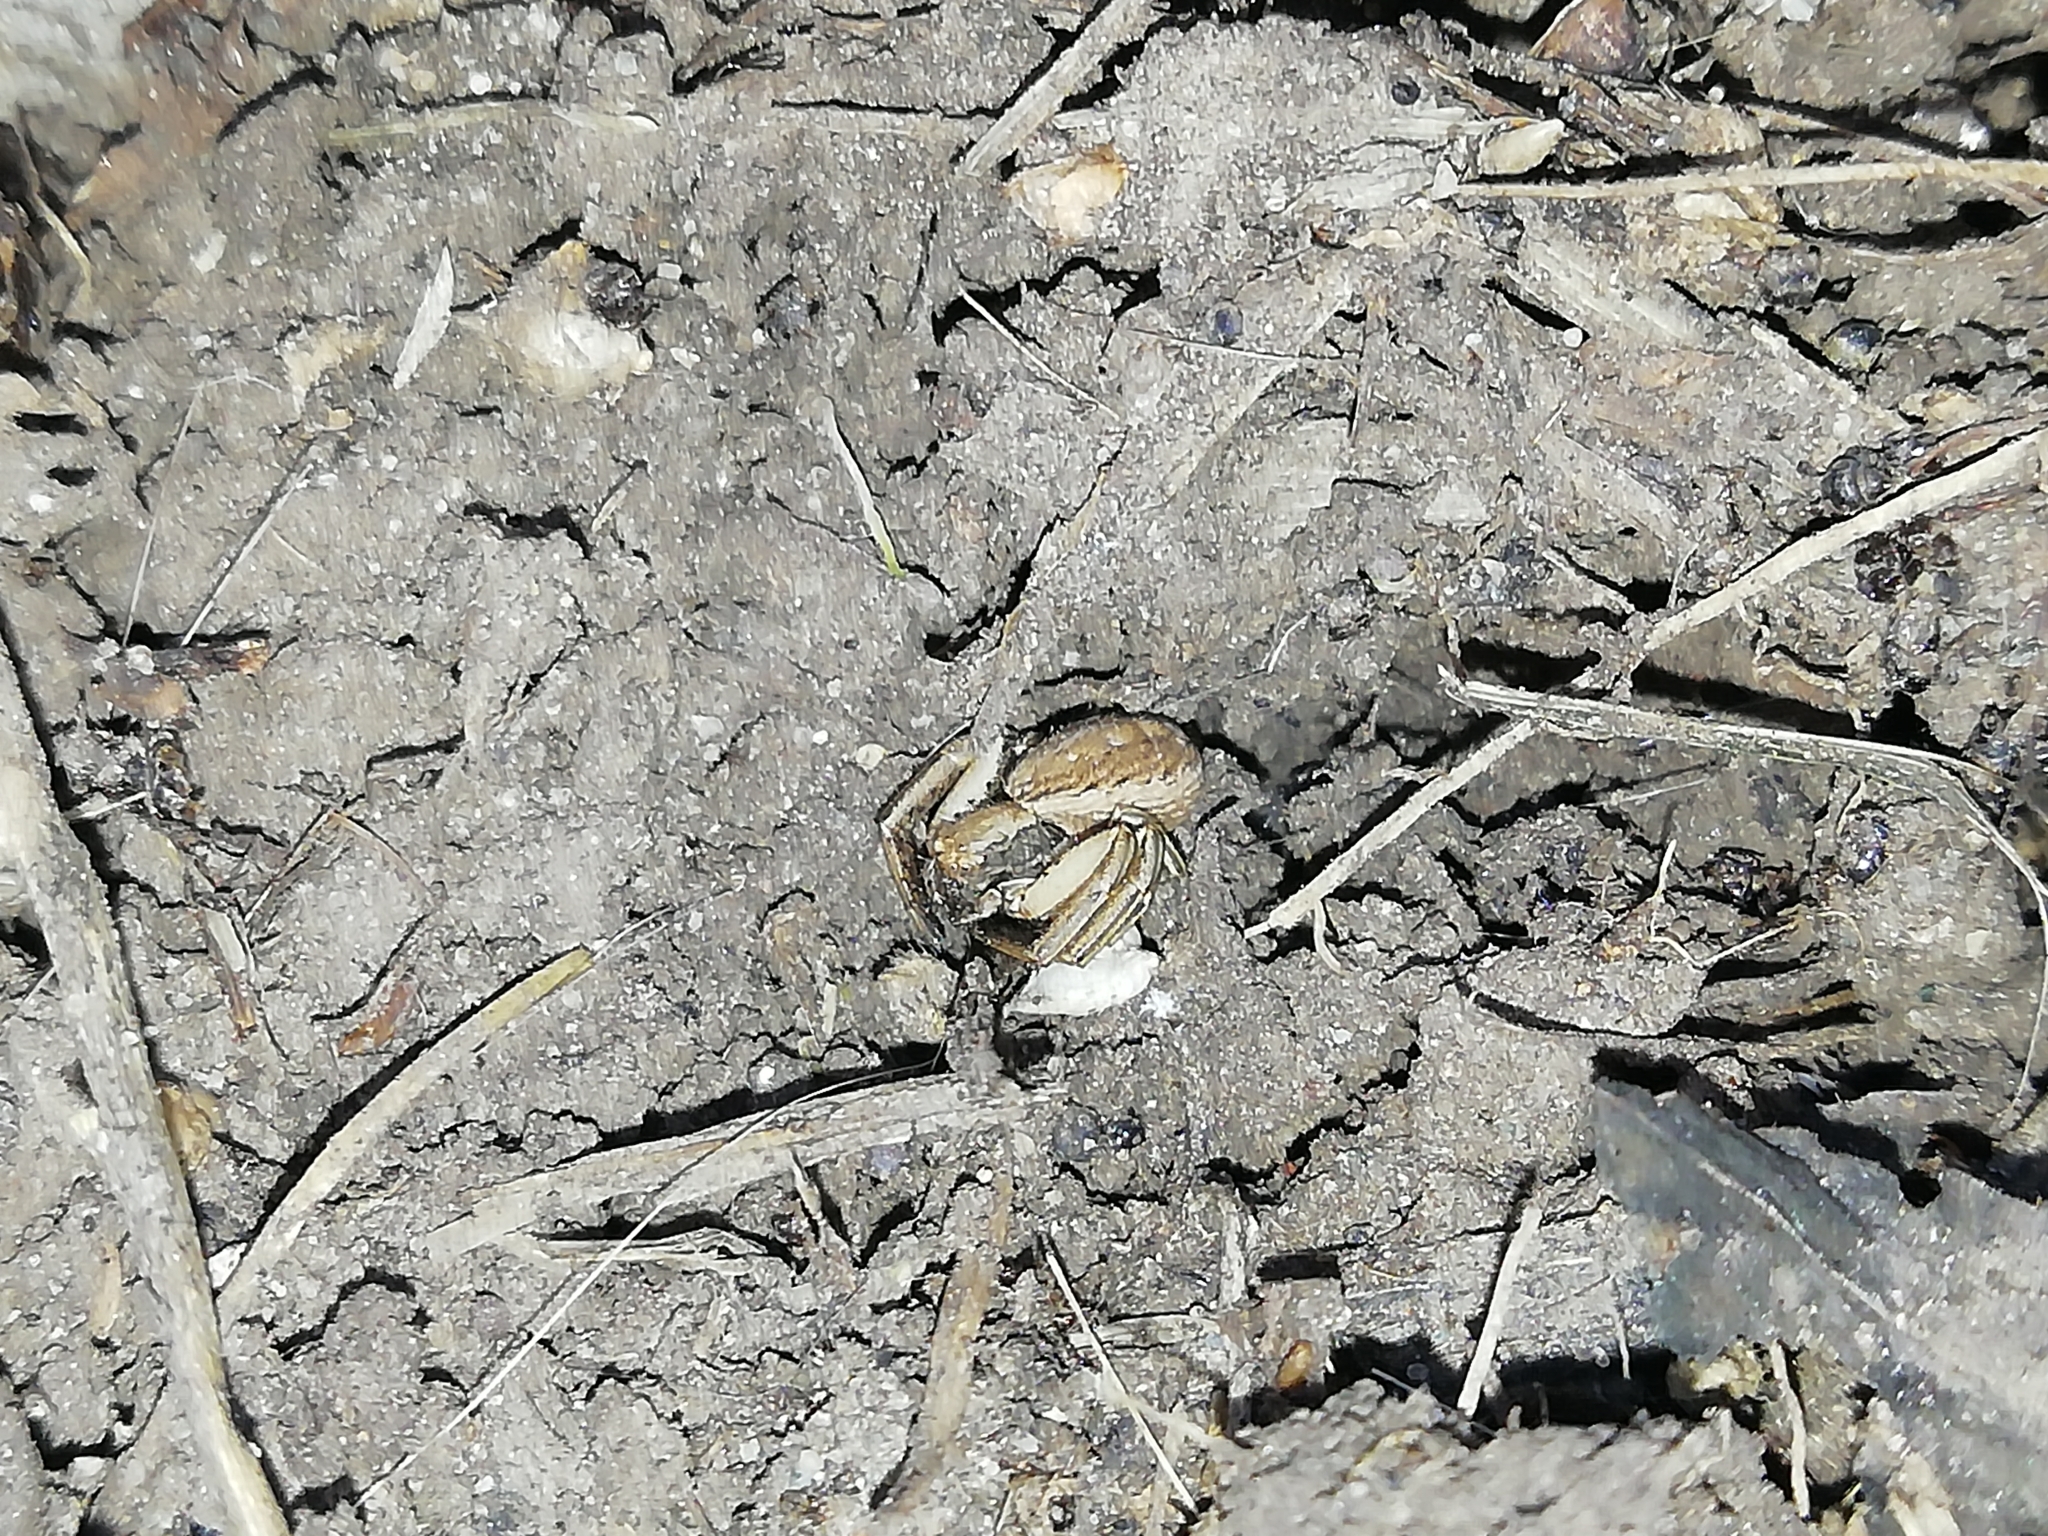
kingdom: Animalia
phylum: Arthropoda
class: Arachnida
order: Araneae
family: Thomisidae
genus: Spiracme
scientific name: Spiracme striatipes
